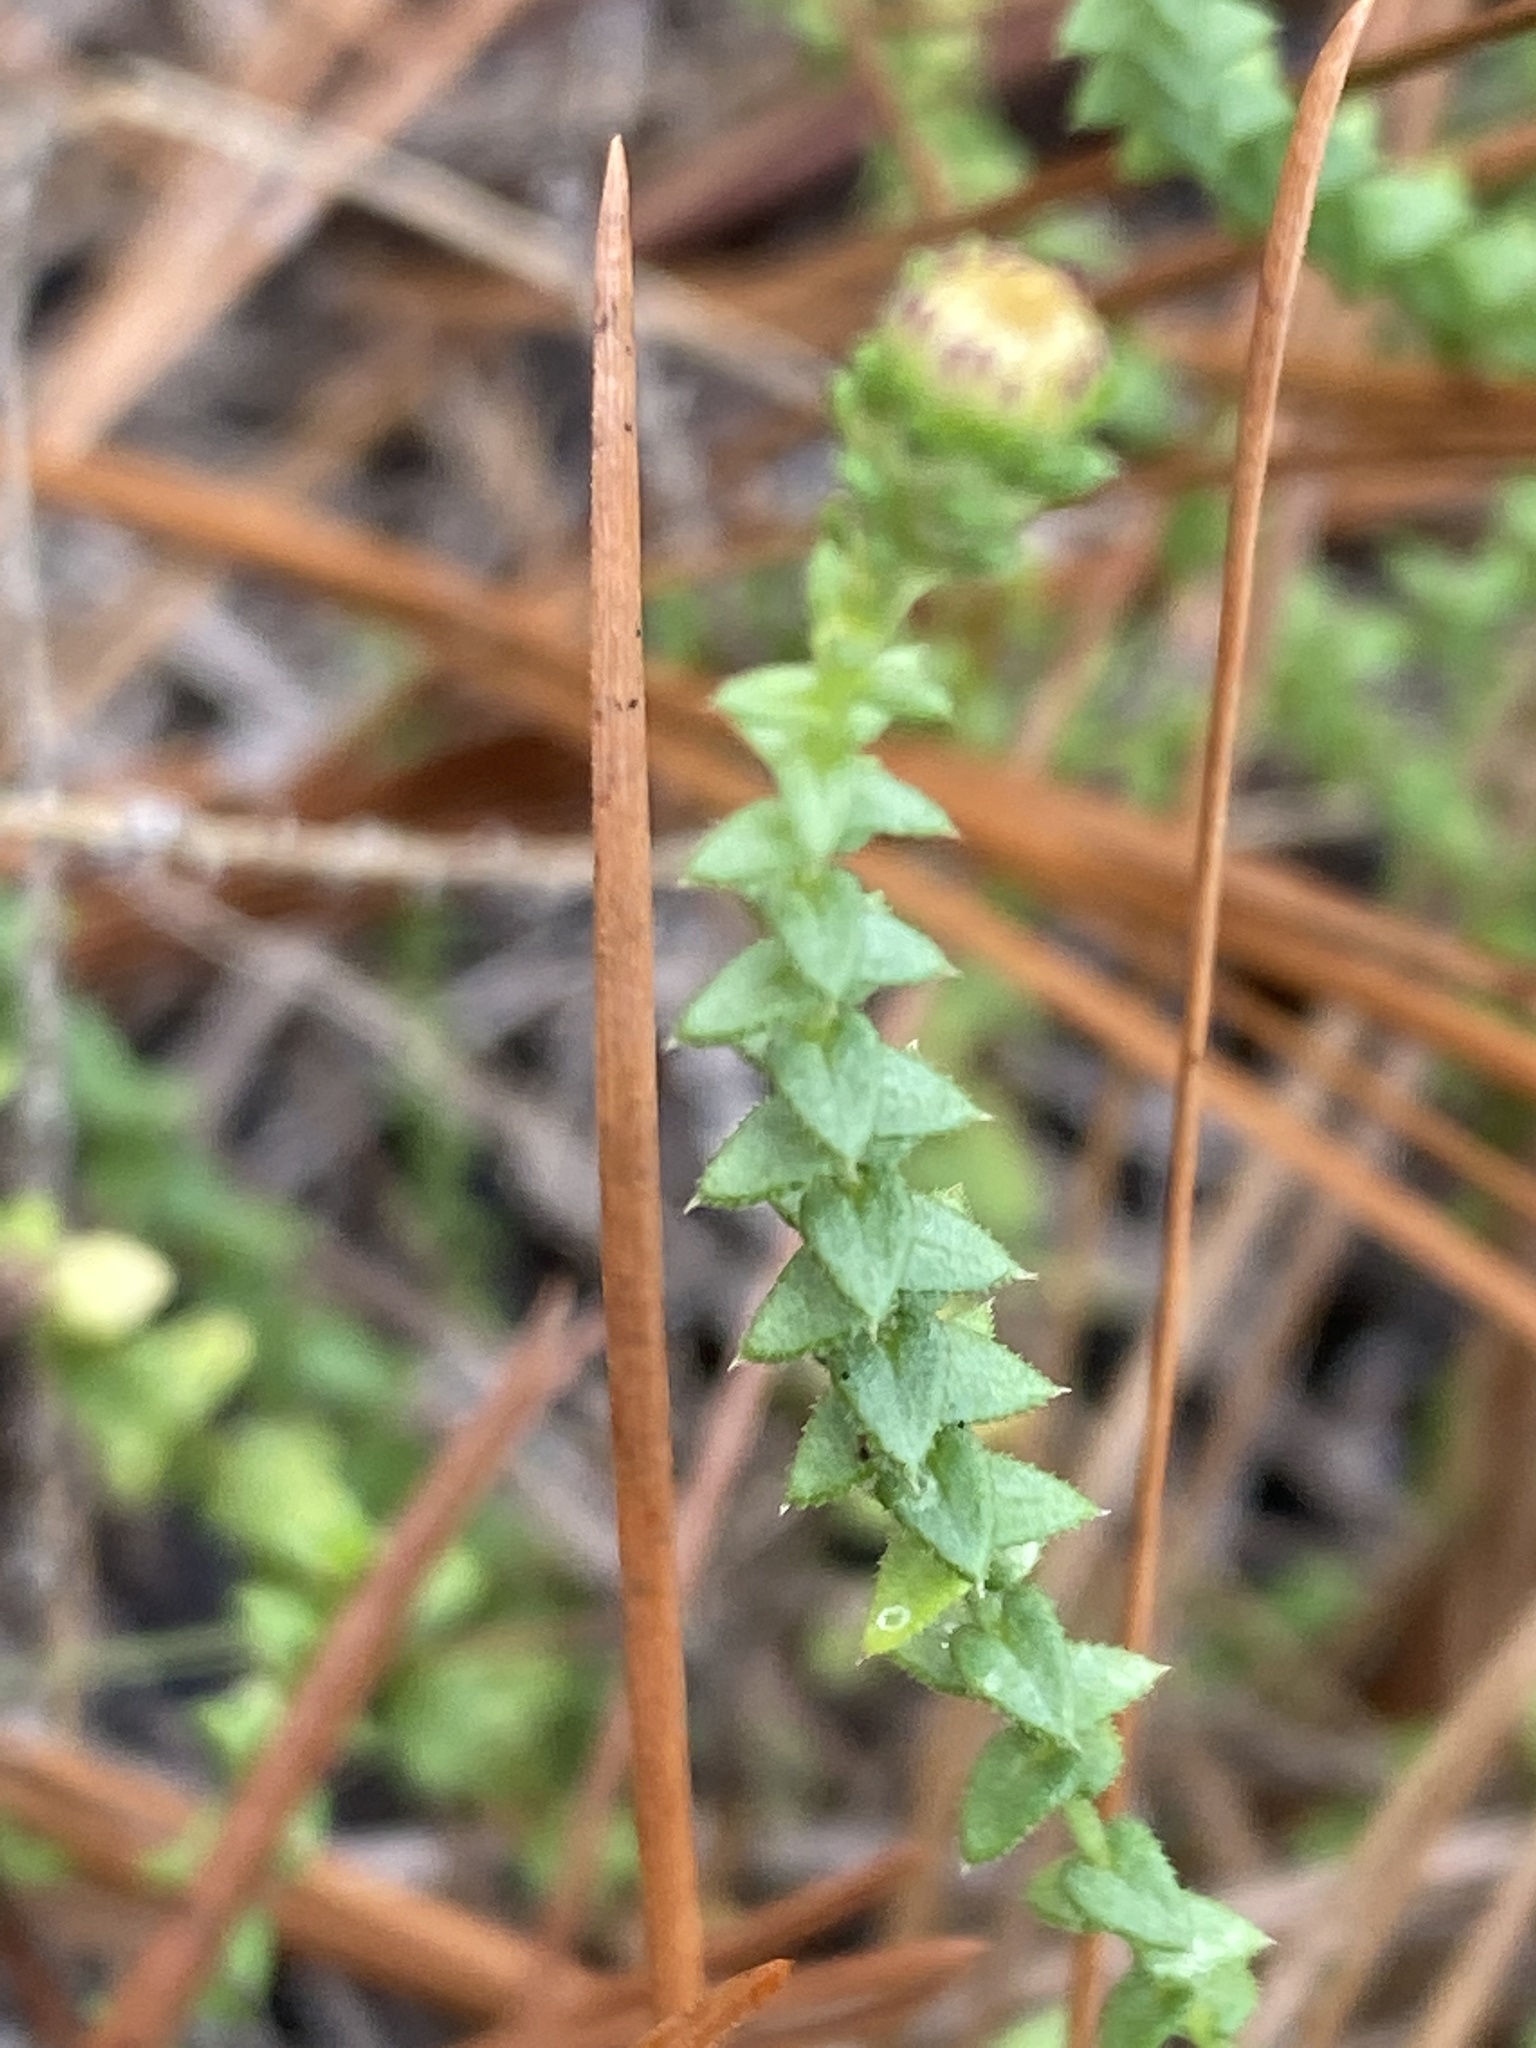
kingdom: Plantae
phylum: Tracheophyta
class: Magnoliopsida
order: Asterales
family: Asteraceae
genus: Symphyotrichum
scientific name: Symphyotrichum walteri
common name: Walter's aster
